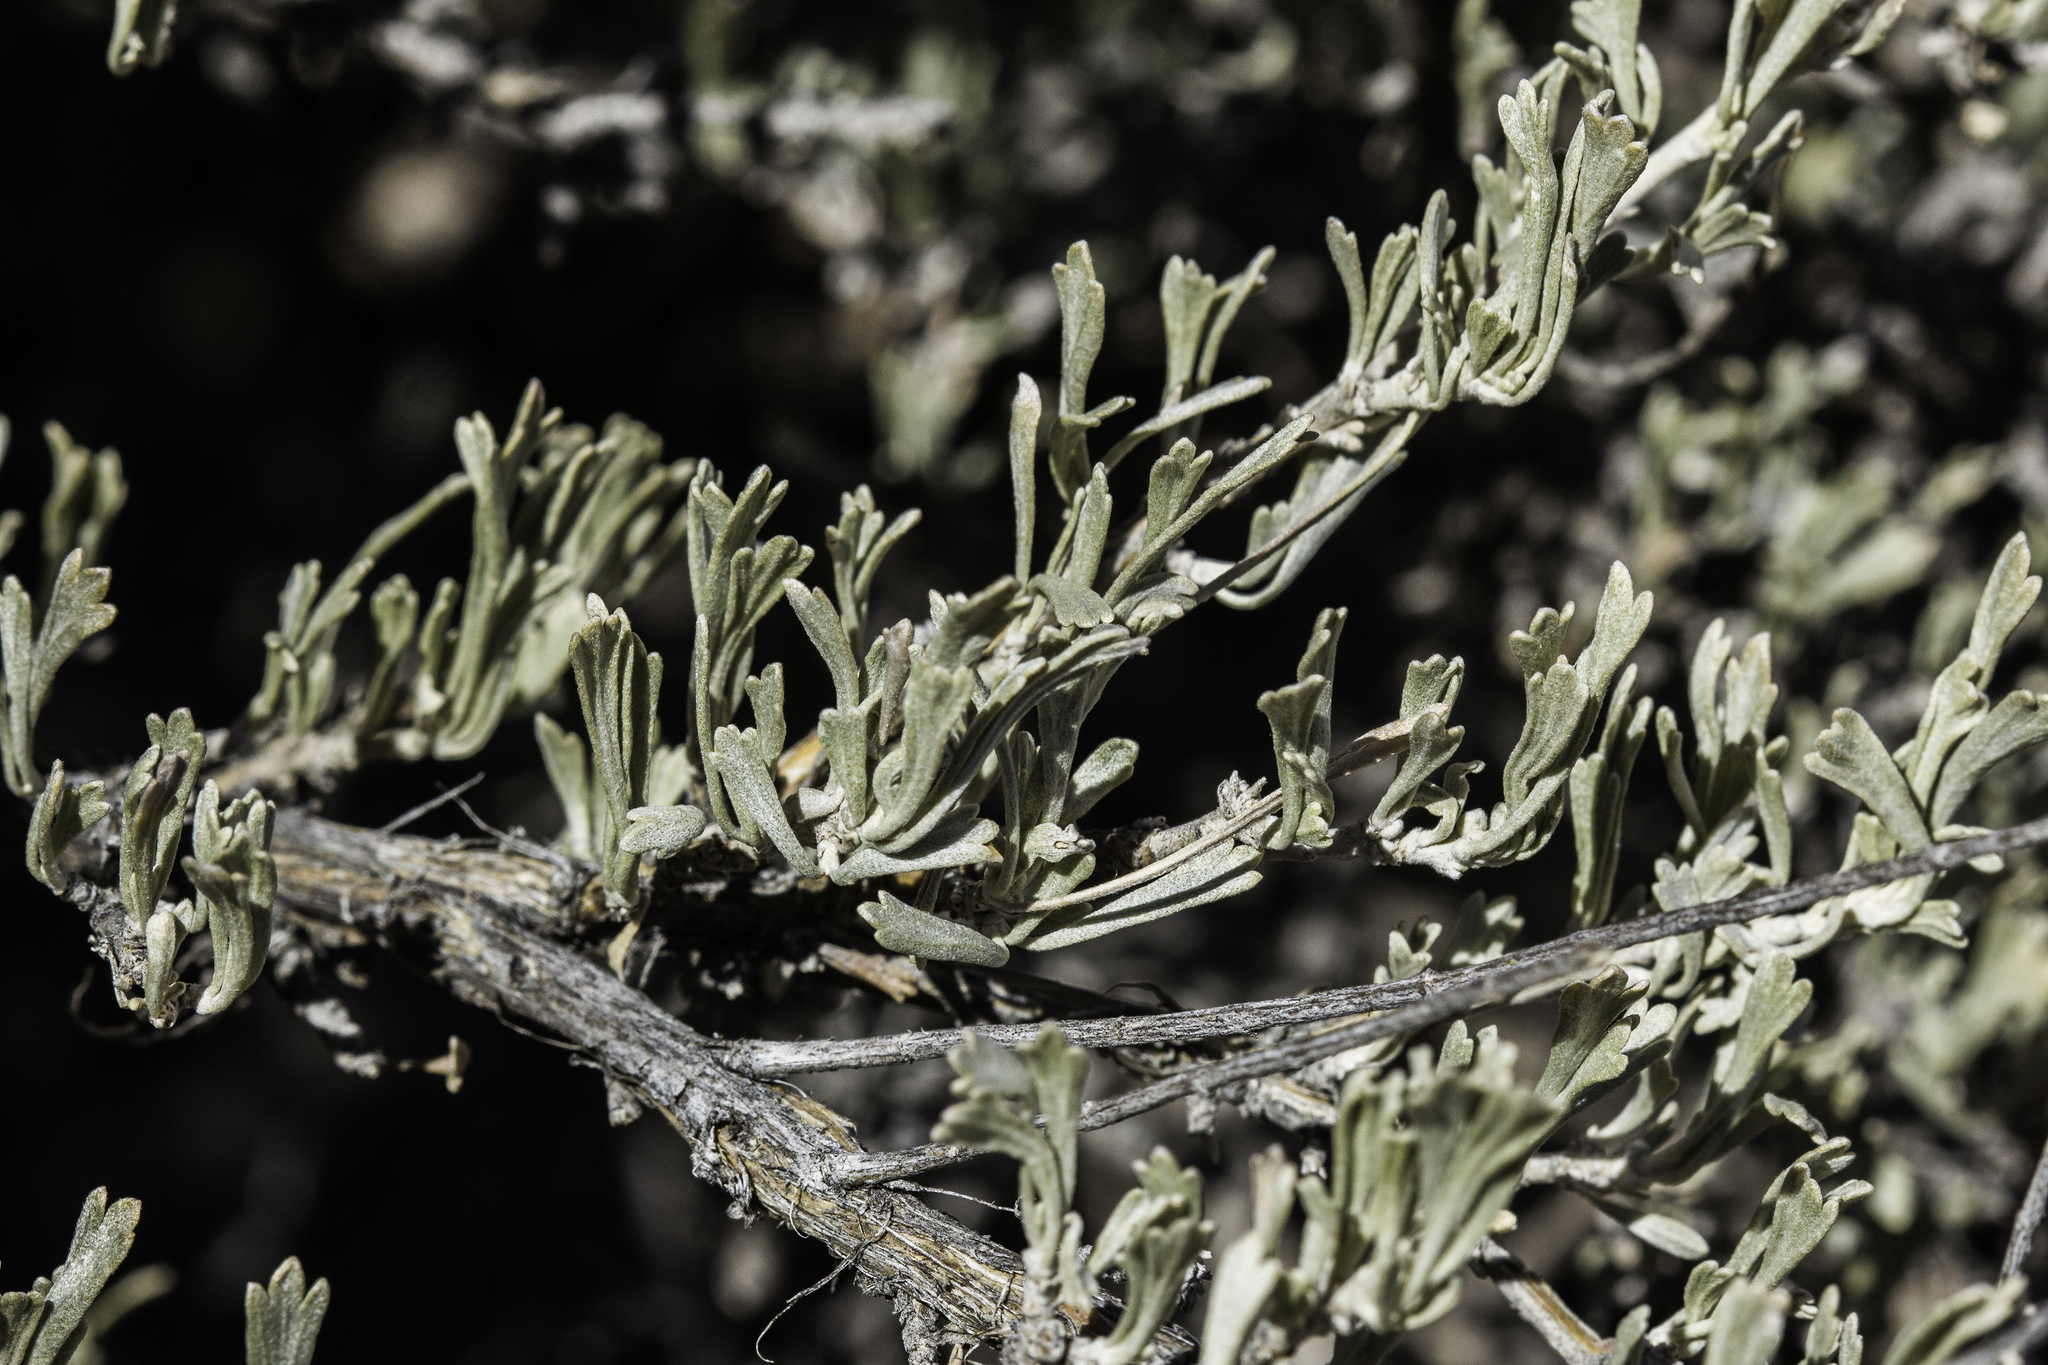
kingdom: Plantae
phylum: Tracheophyta
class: Magnoliopsida
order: Asterales
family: Asteraceae
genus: Artemisia
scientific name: Artemisia tridentata
